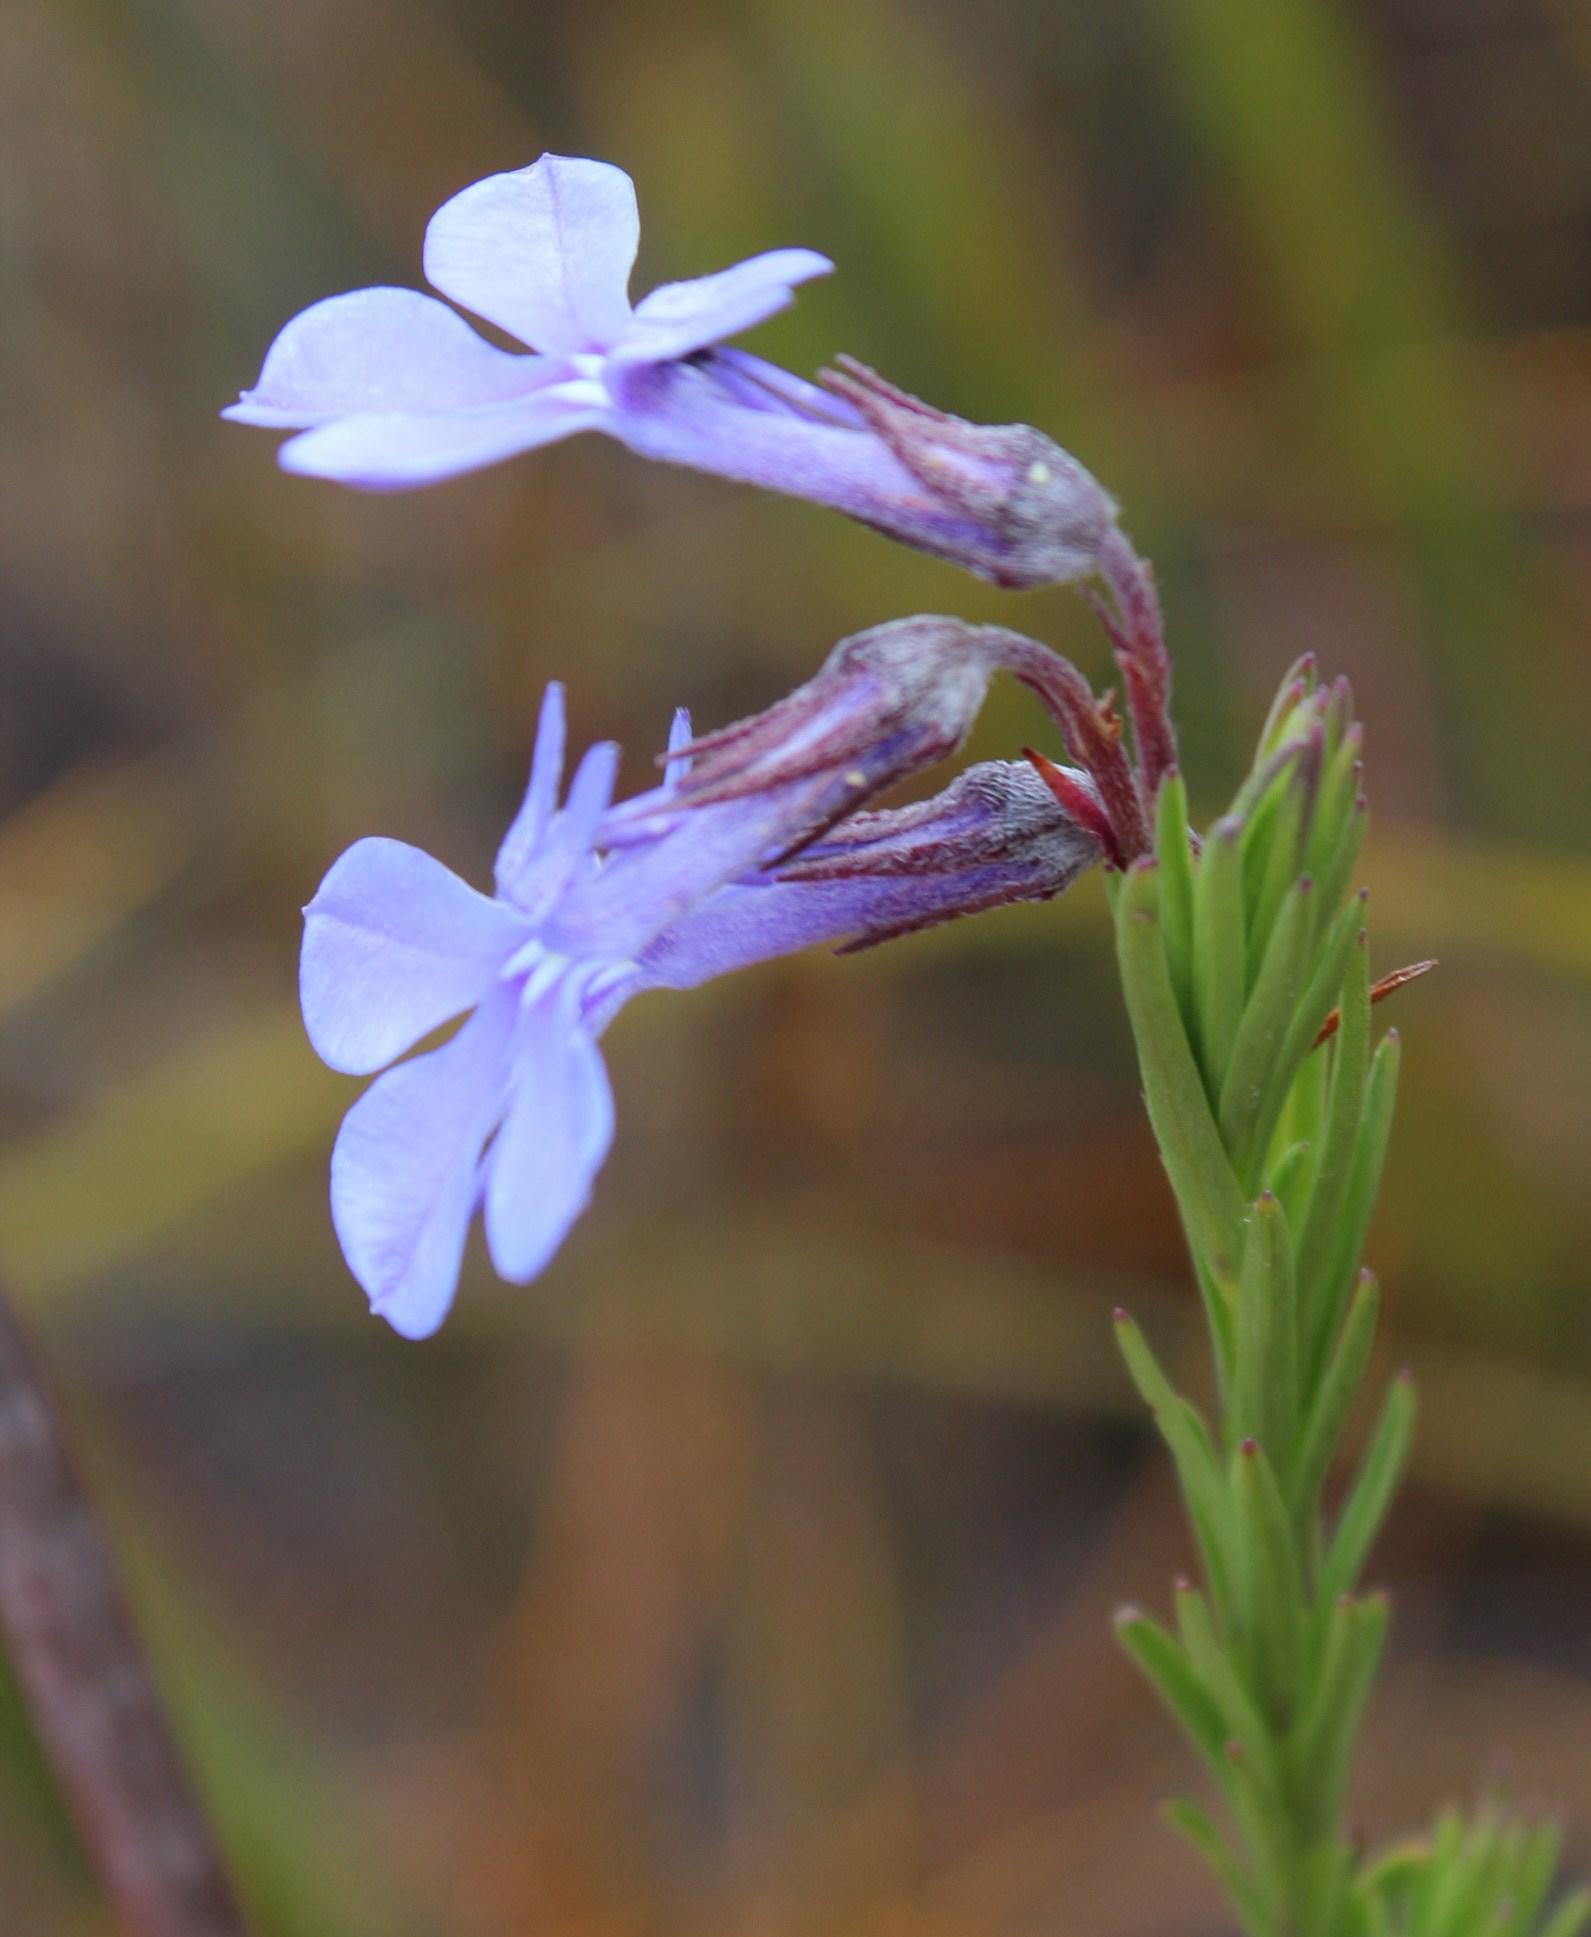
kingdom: Plantae
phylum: Tracheophyta
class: Magnoliopsida
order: Asterales
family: Campanulaceae
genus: Lobelia
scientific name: Lobelia pinifolia
